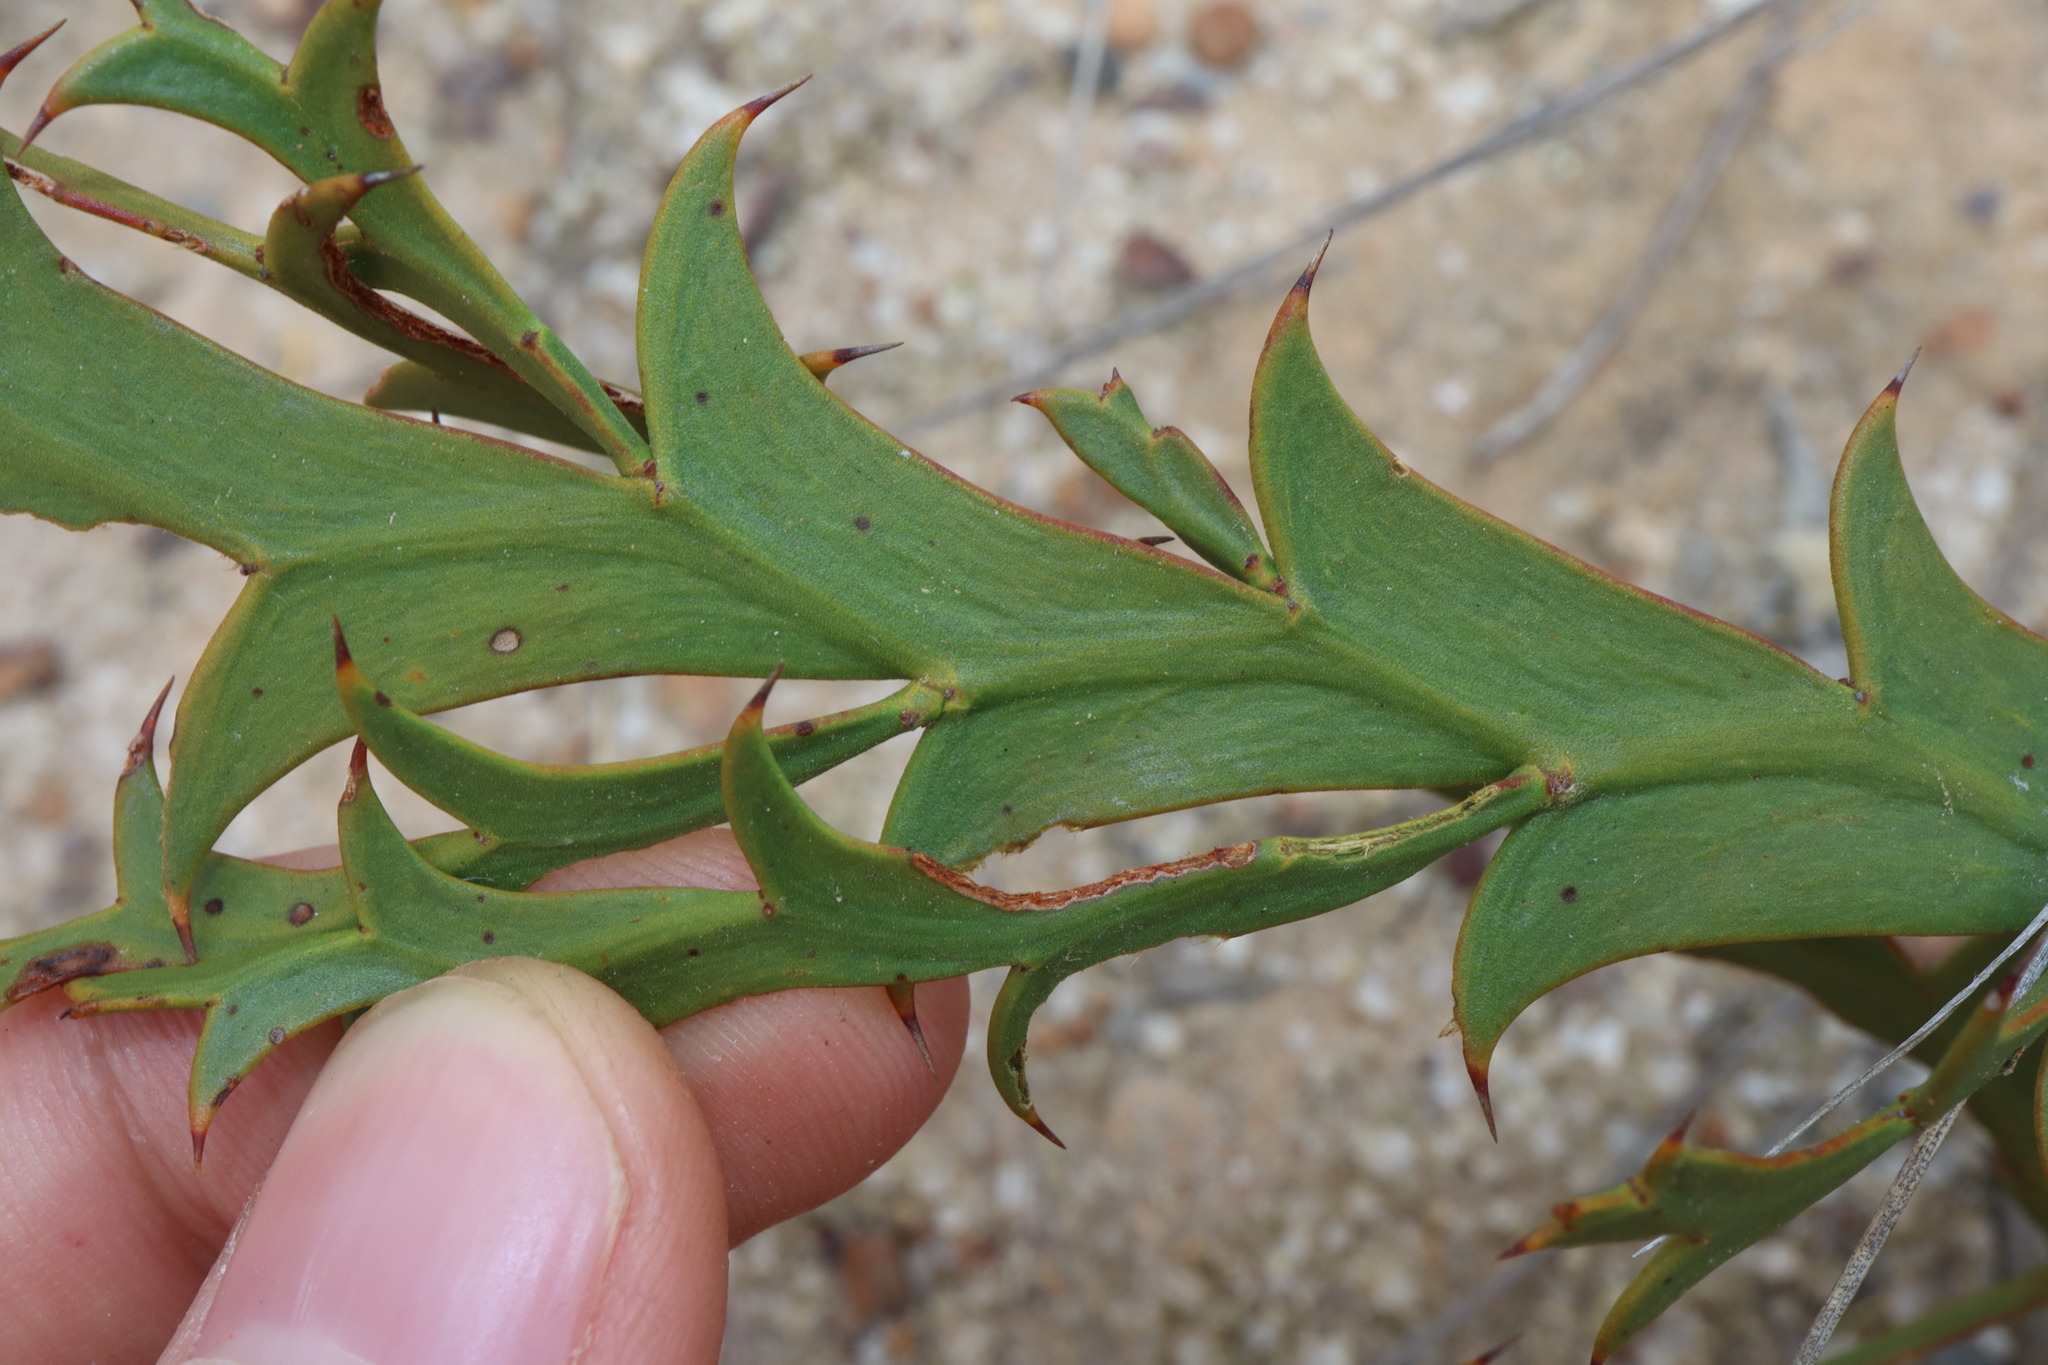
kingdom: Plantae
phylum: Tracheophyta
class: Magnoliopsida
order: Fabales
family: Fabaceae
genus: Daviesia
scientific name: Daviesia decipiens
